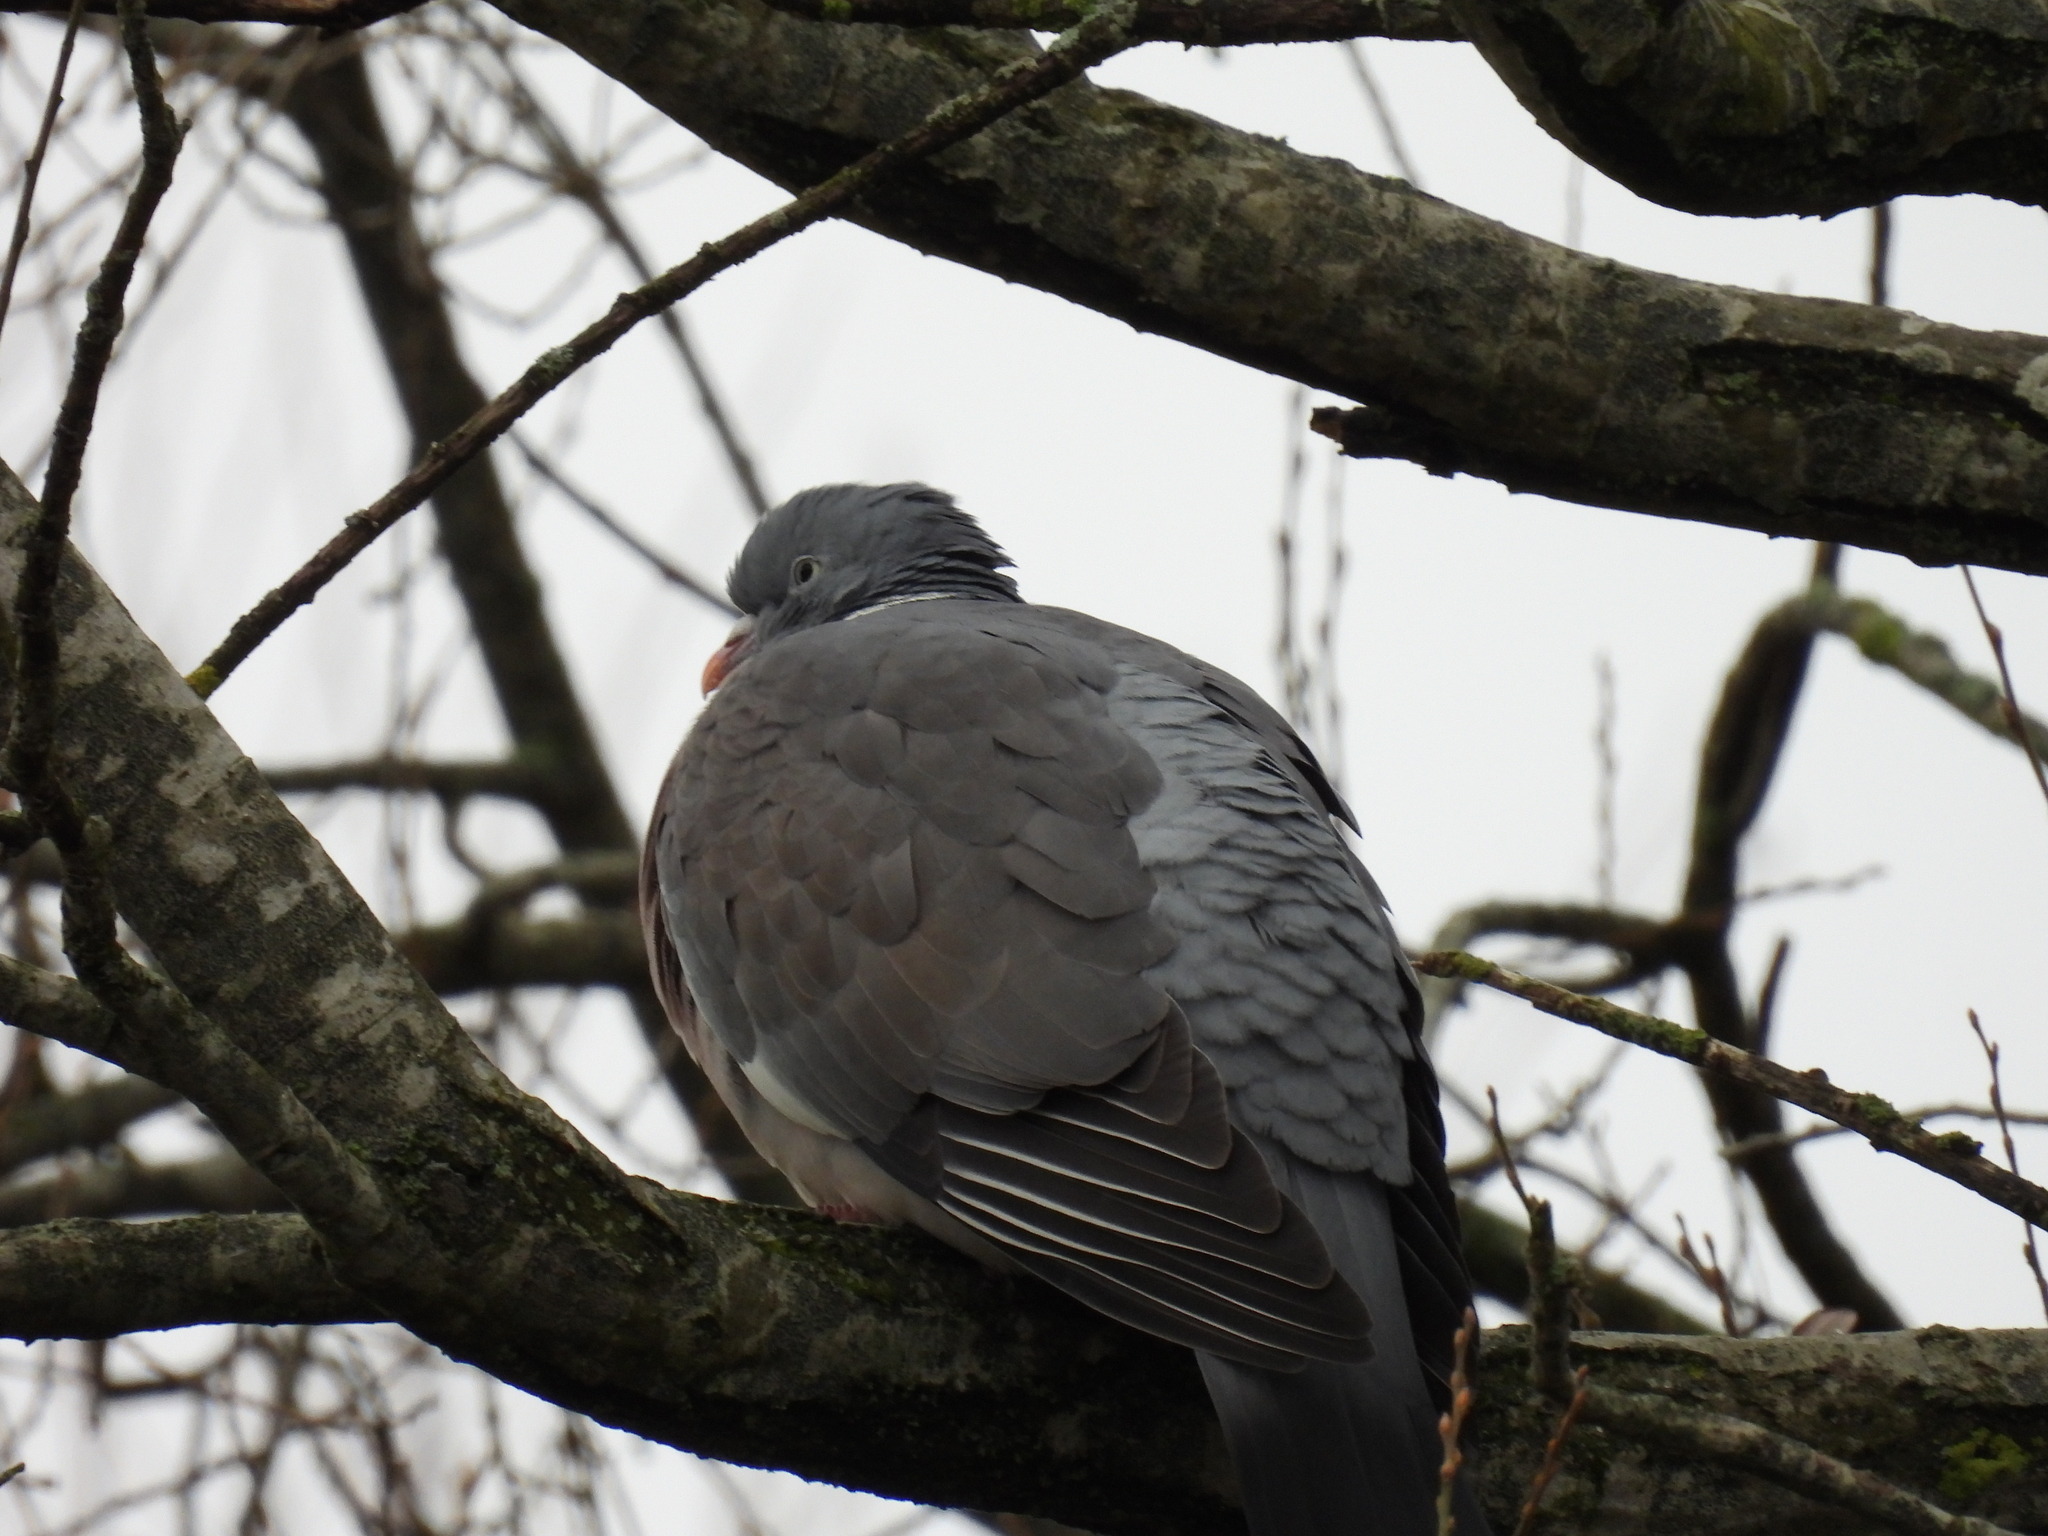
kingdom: Animalia
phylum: Chordata
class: Aves
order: Columbiformes
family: Columbidae
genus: Columba
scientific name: Columba palumbus
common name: Common wood pigeon
